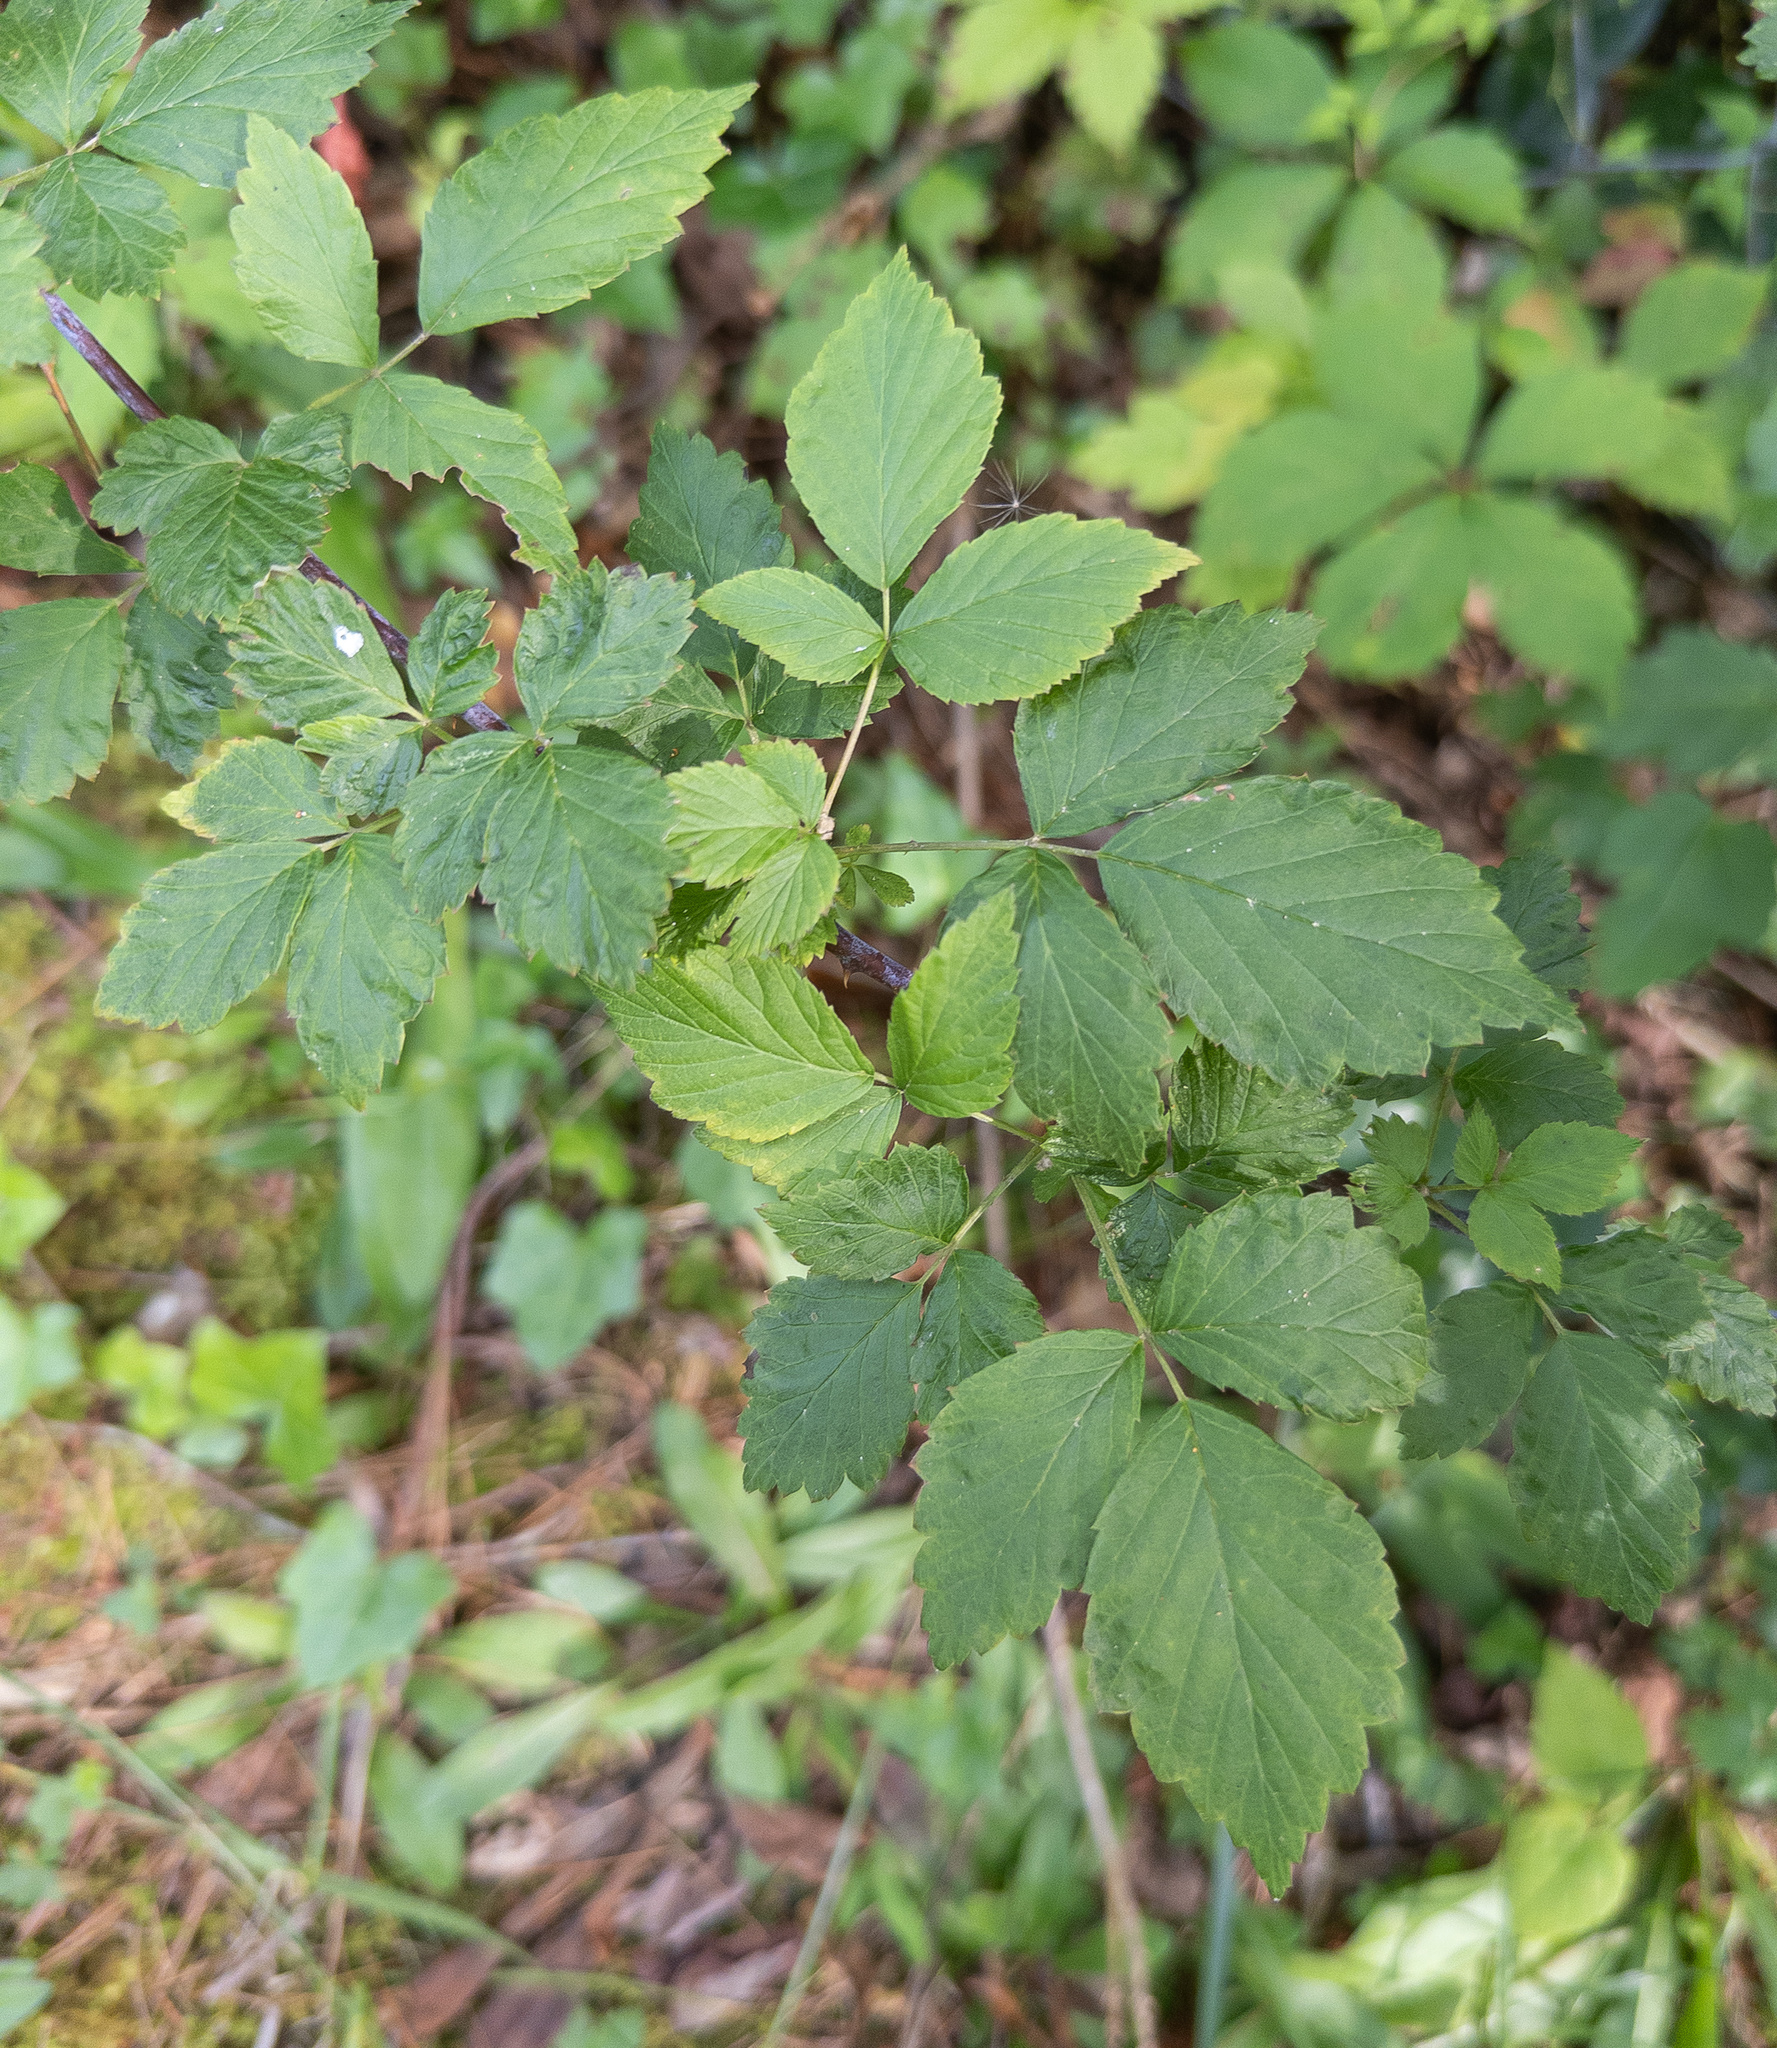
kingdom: Plantae
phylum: Tracheophyta
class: Magnoliopsida
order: Rosales
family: Rosaceae
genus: Rubus
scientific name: Rubus occidentalis
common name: Black raspberry
